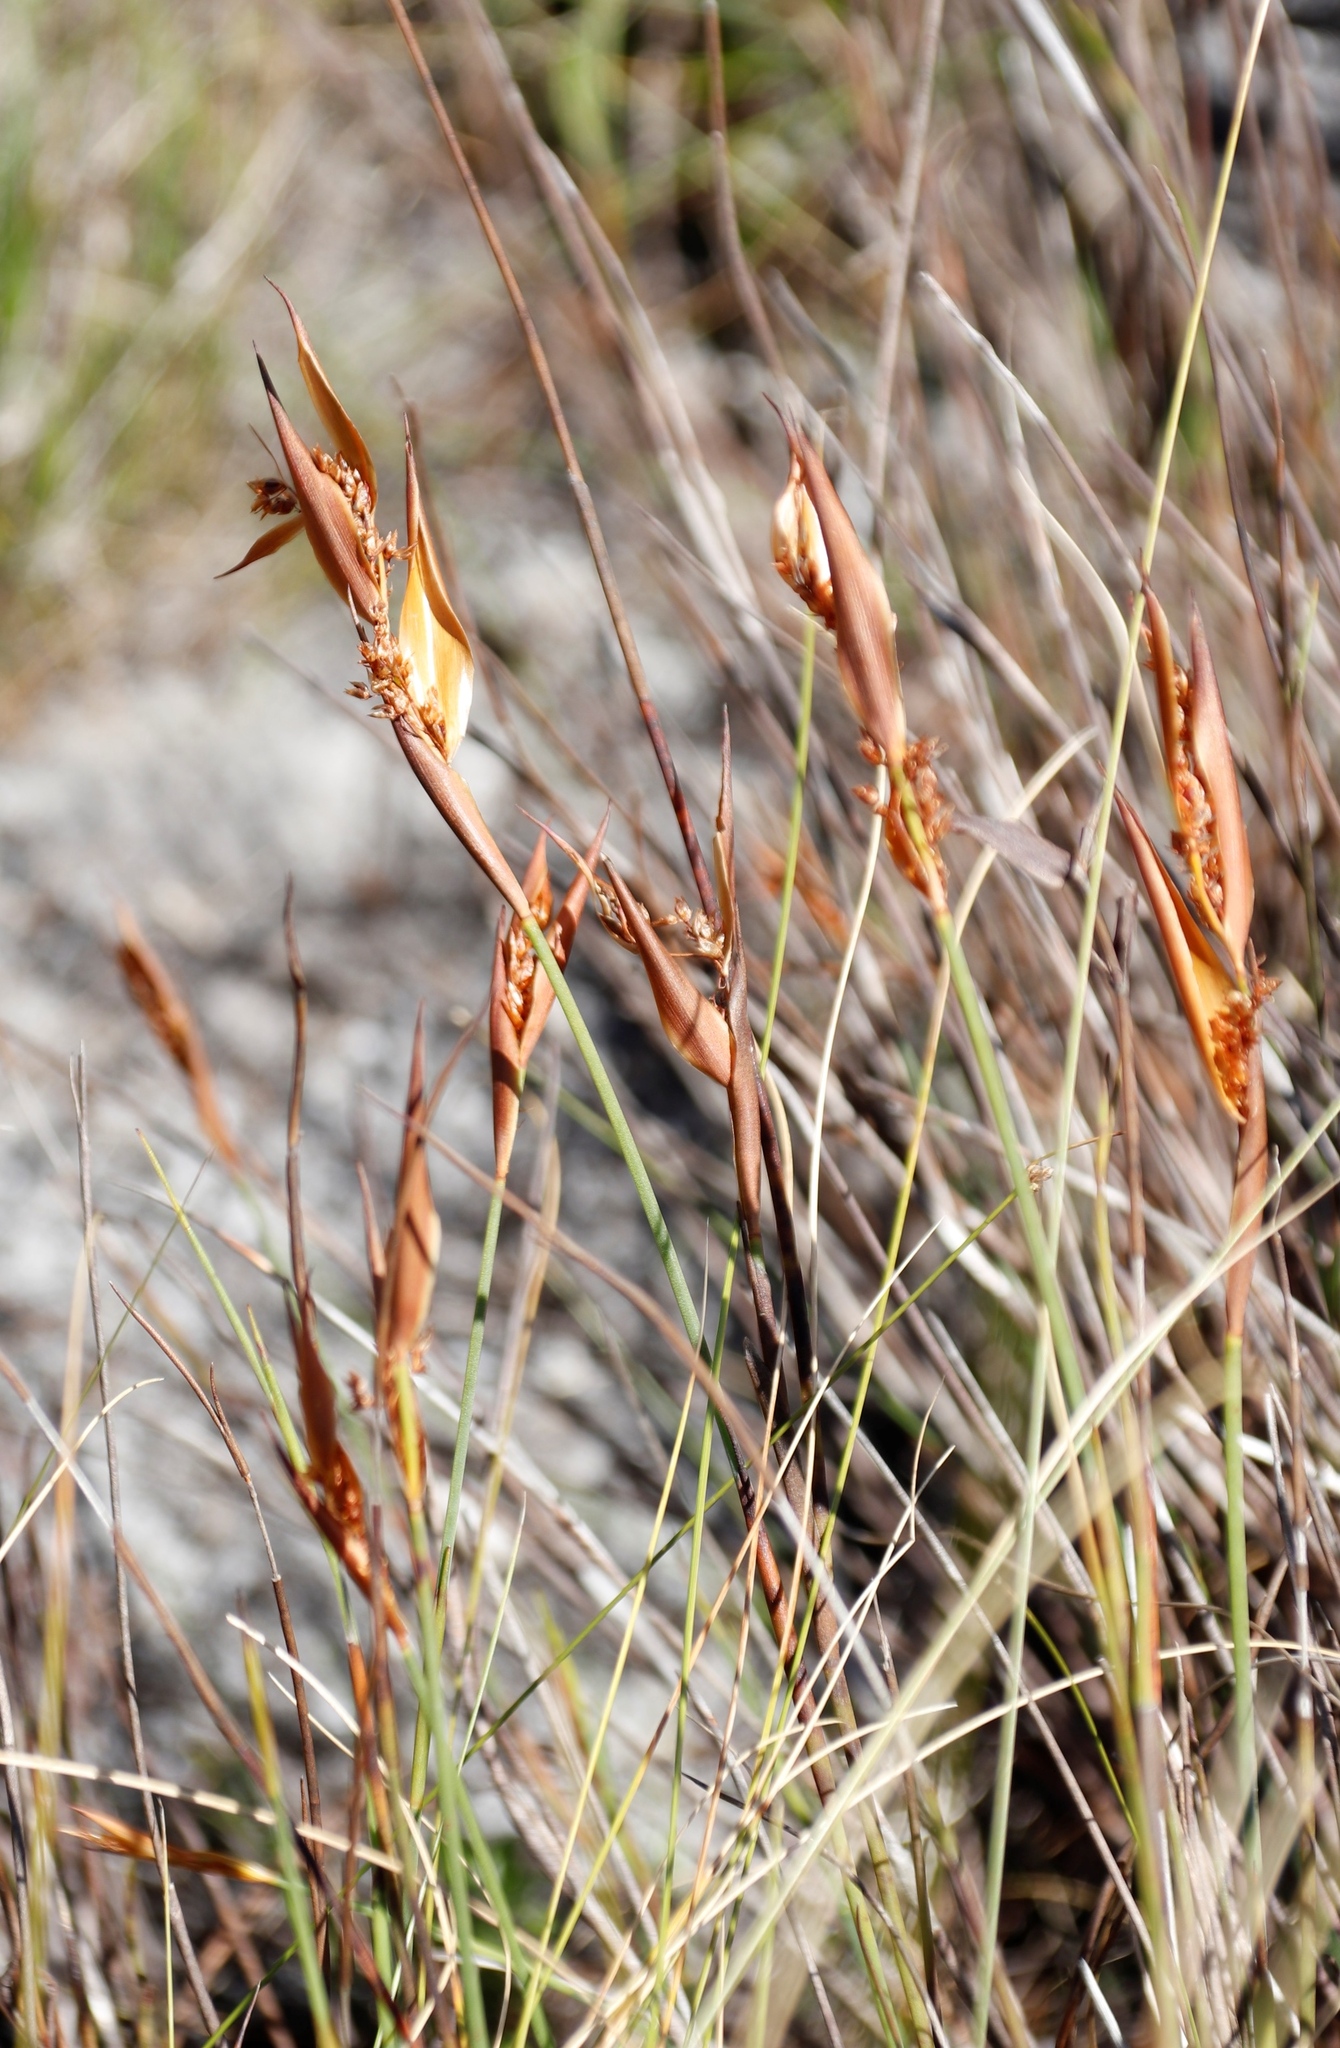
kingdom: Plantae
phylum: Tracheophyta
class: Liliopsida
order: Poales
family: Restionaceae
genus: Elegia
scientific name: Elegia neesii
